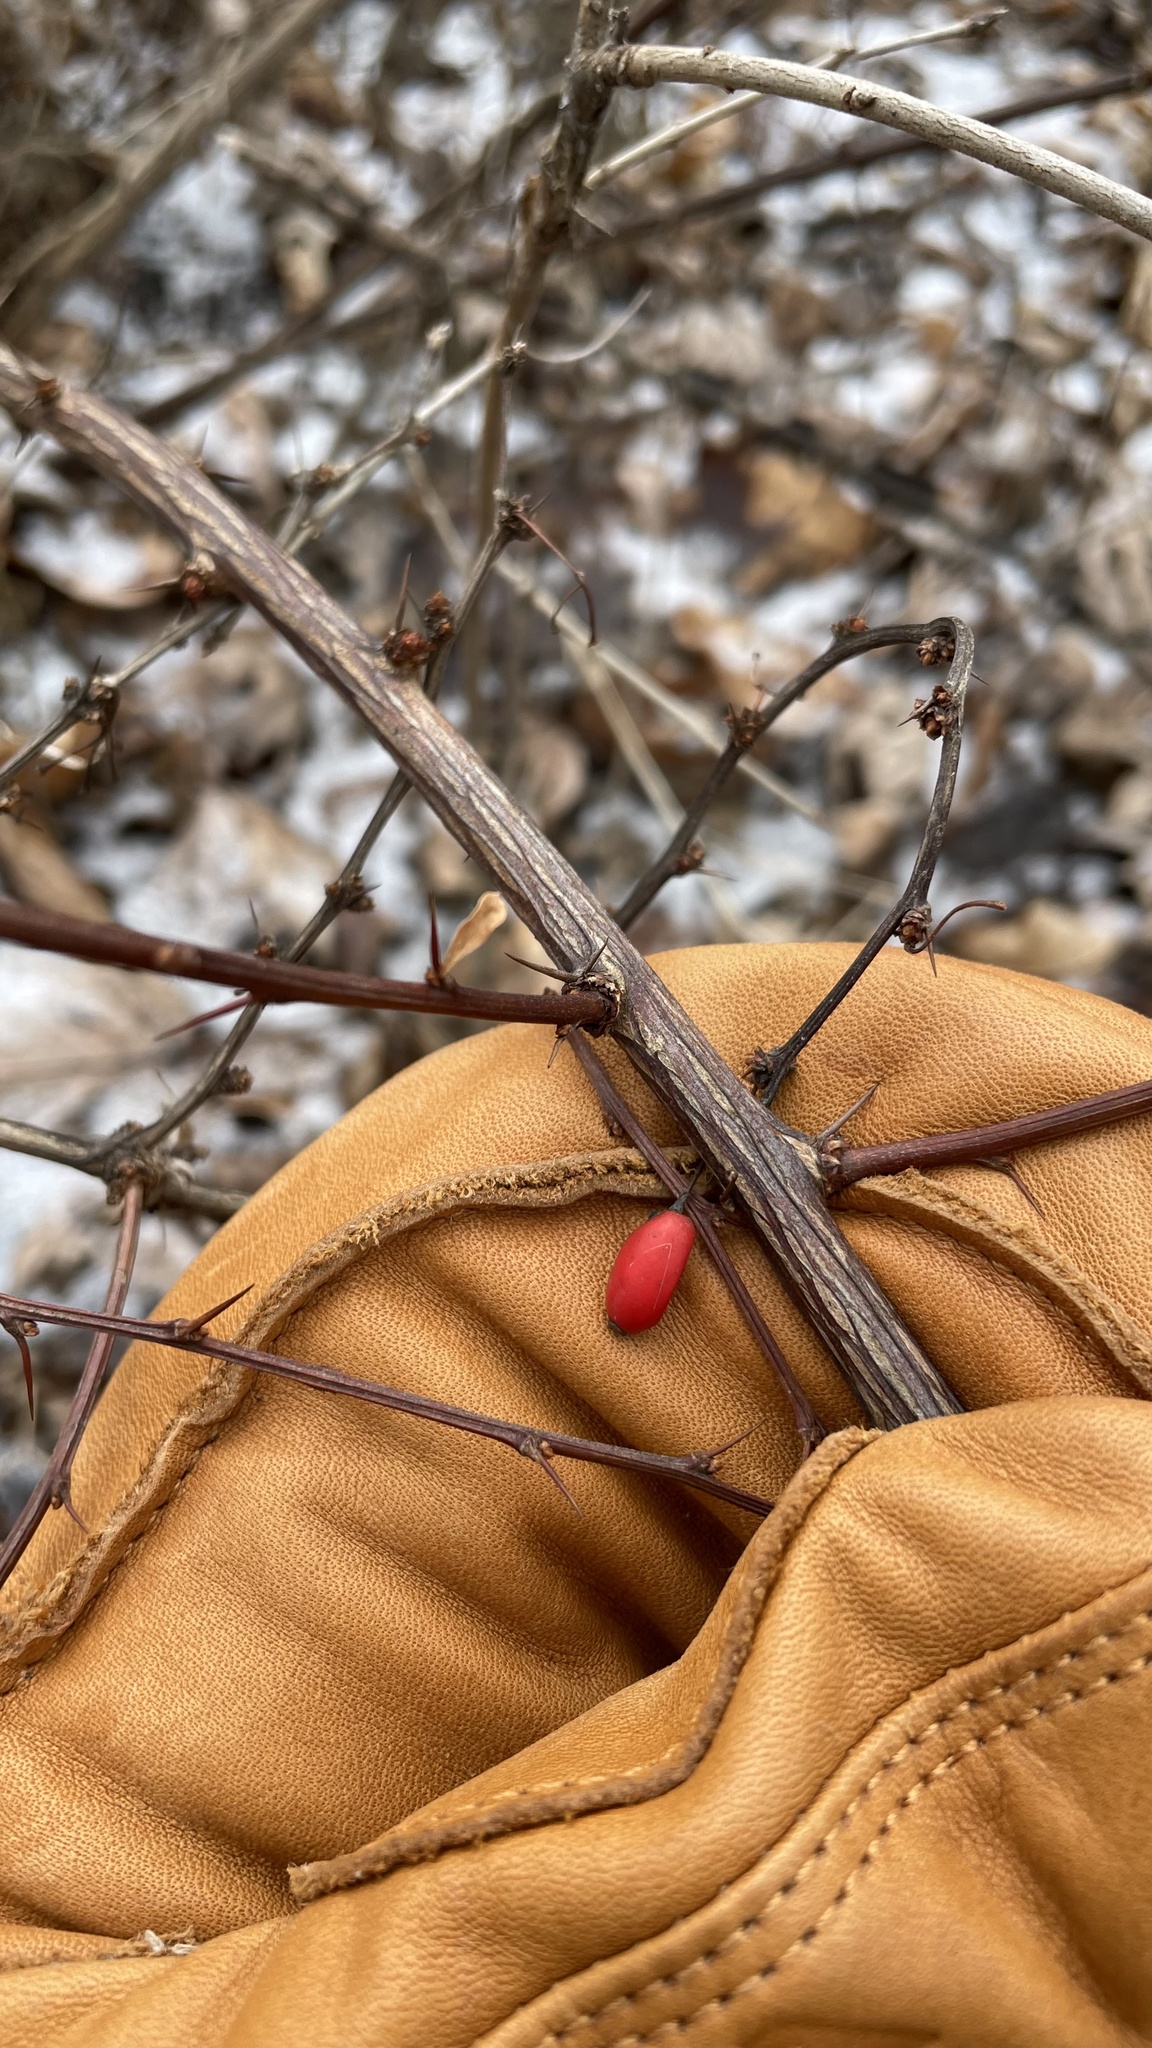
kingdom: Plantae
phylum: Tracheophyta
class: Magnoliopsida
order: Ranunculales
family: Berberidaceae
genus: Berberis
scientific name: Berberis thunbergii
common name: Japanese barberry
